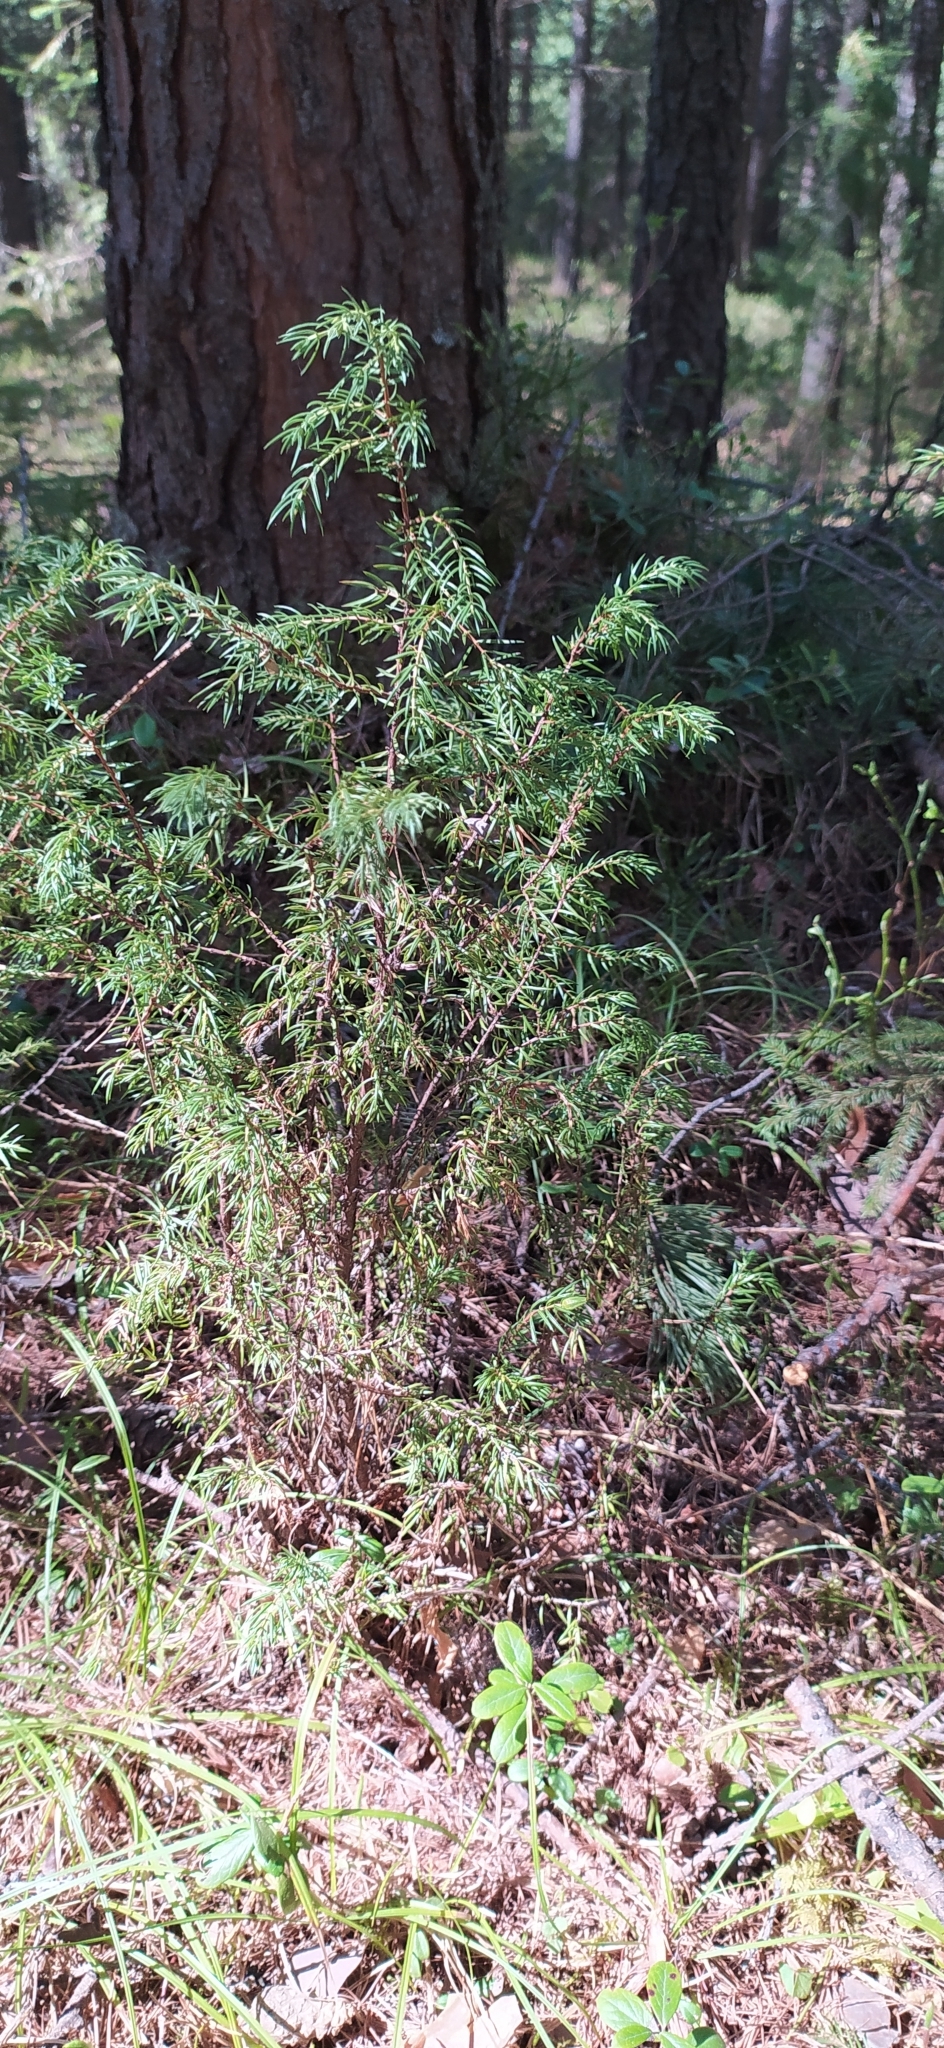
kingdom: Plantae
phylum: Tracheophyta
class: Pinopsida
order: Pinales
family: Cupressaceae
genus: Juniperus
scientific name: Juniperus communis
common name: Common juniper
